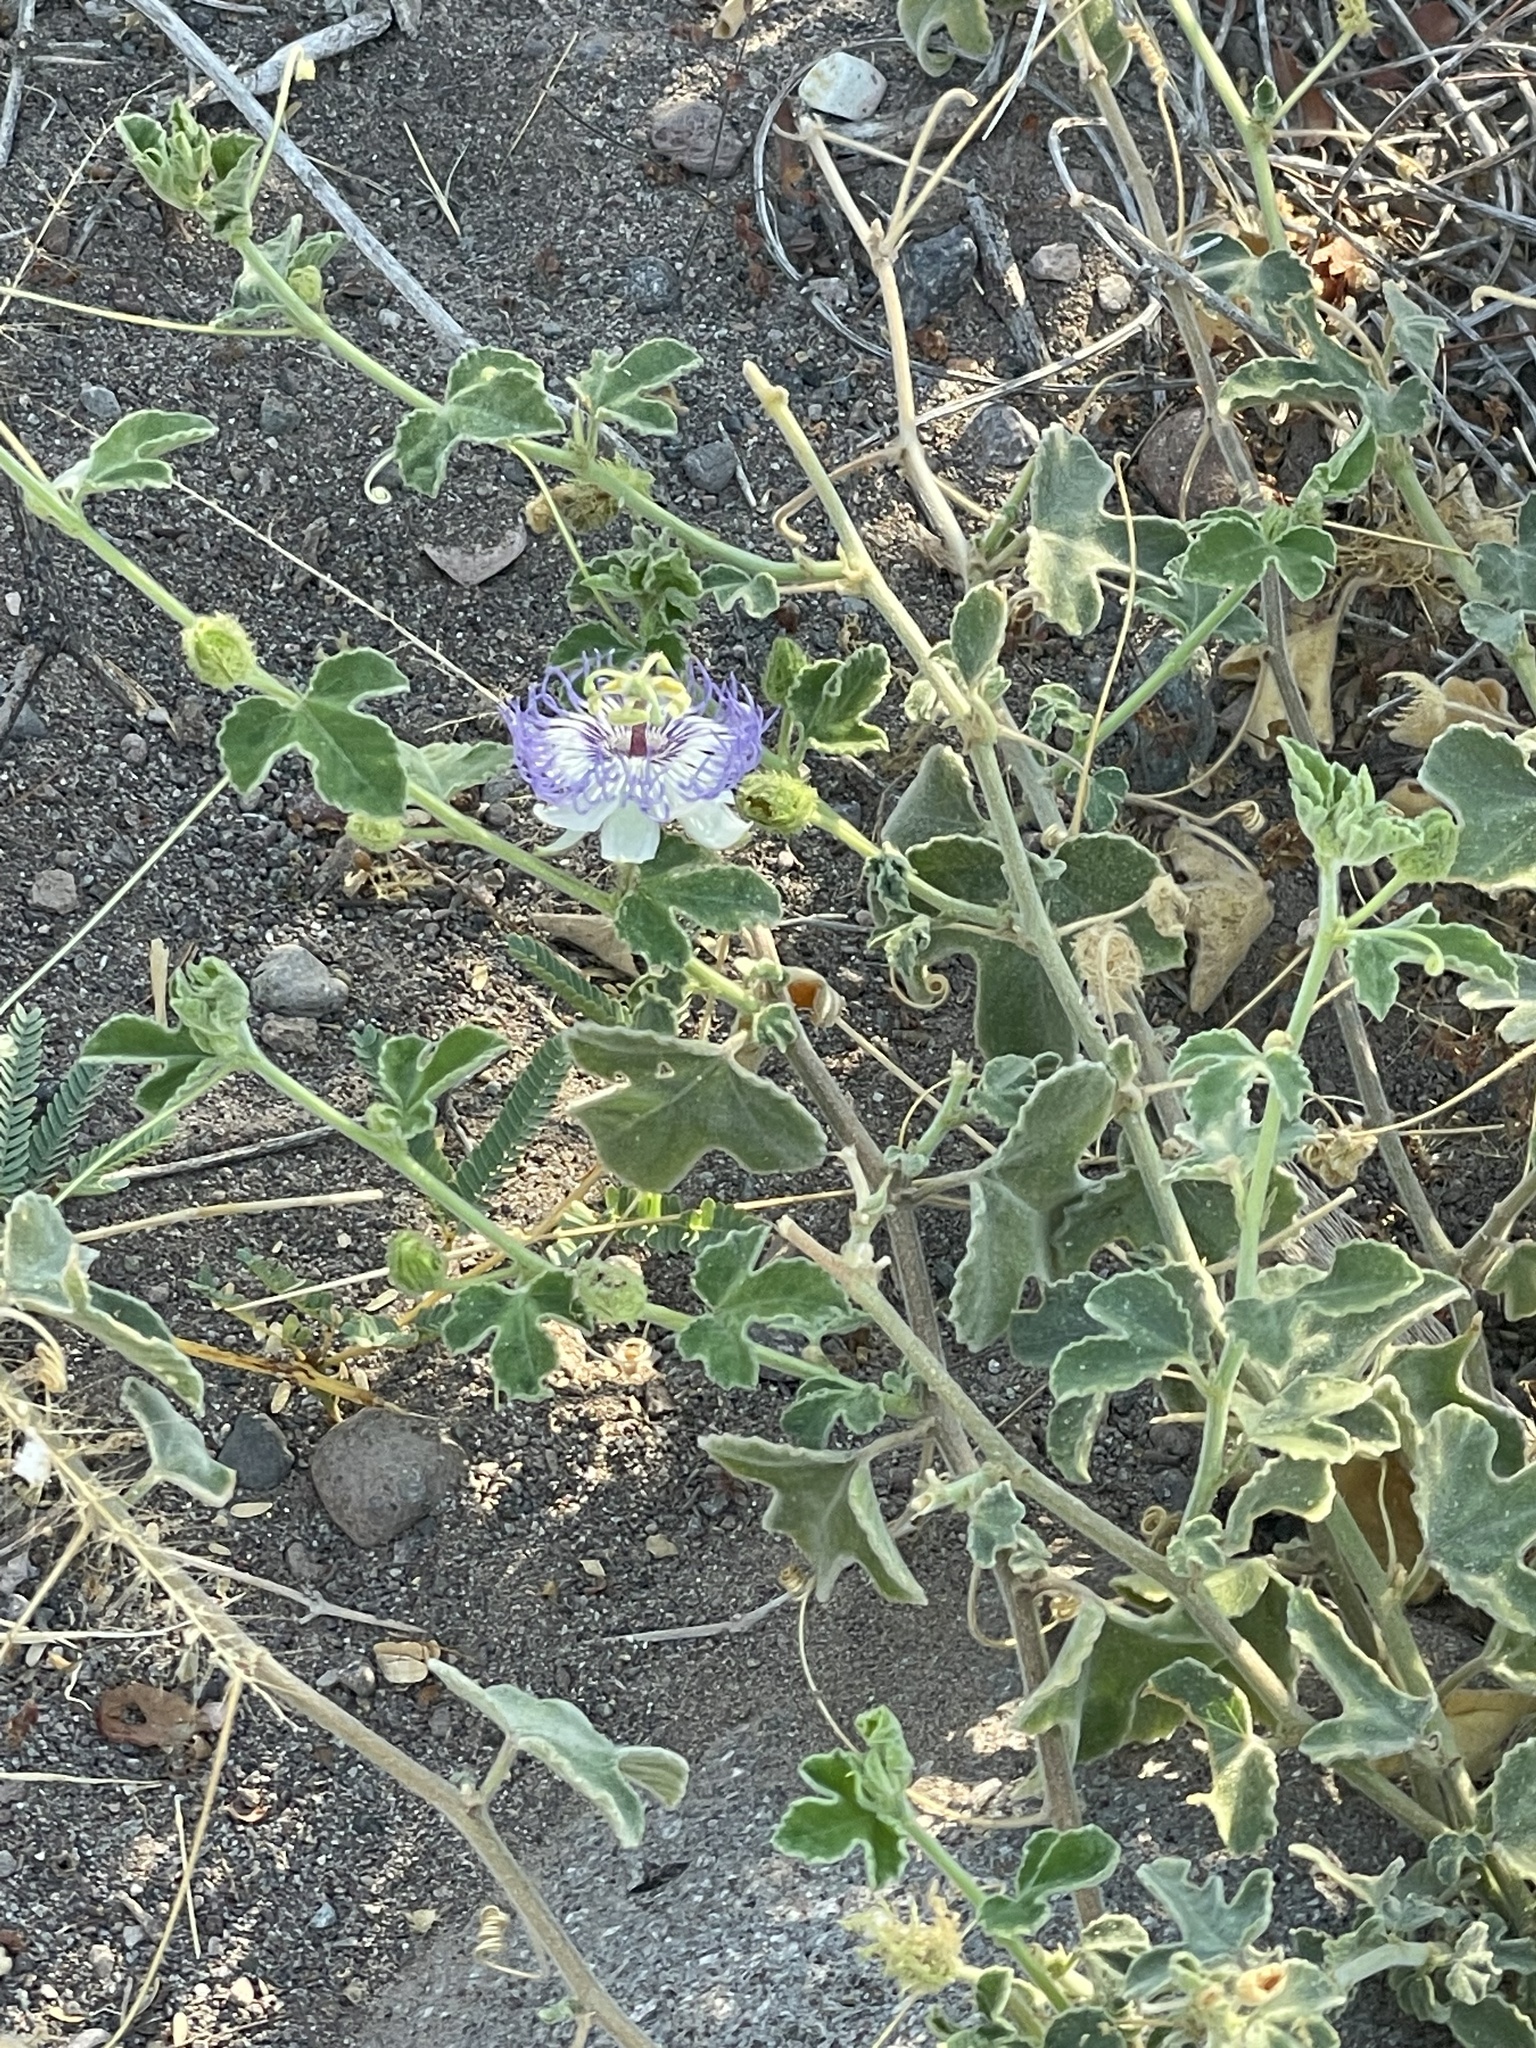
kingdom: Plantae
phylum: Tracheophyta
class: Magnoliopsida
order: Malpighiales
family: Passifloraceae
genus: Passiflora
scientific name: Passiflora arida
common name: Desert passionflower
